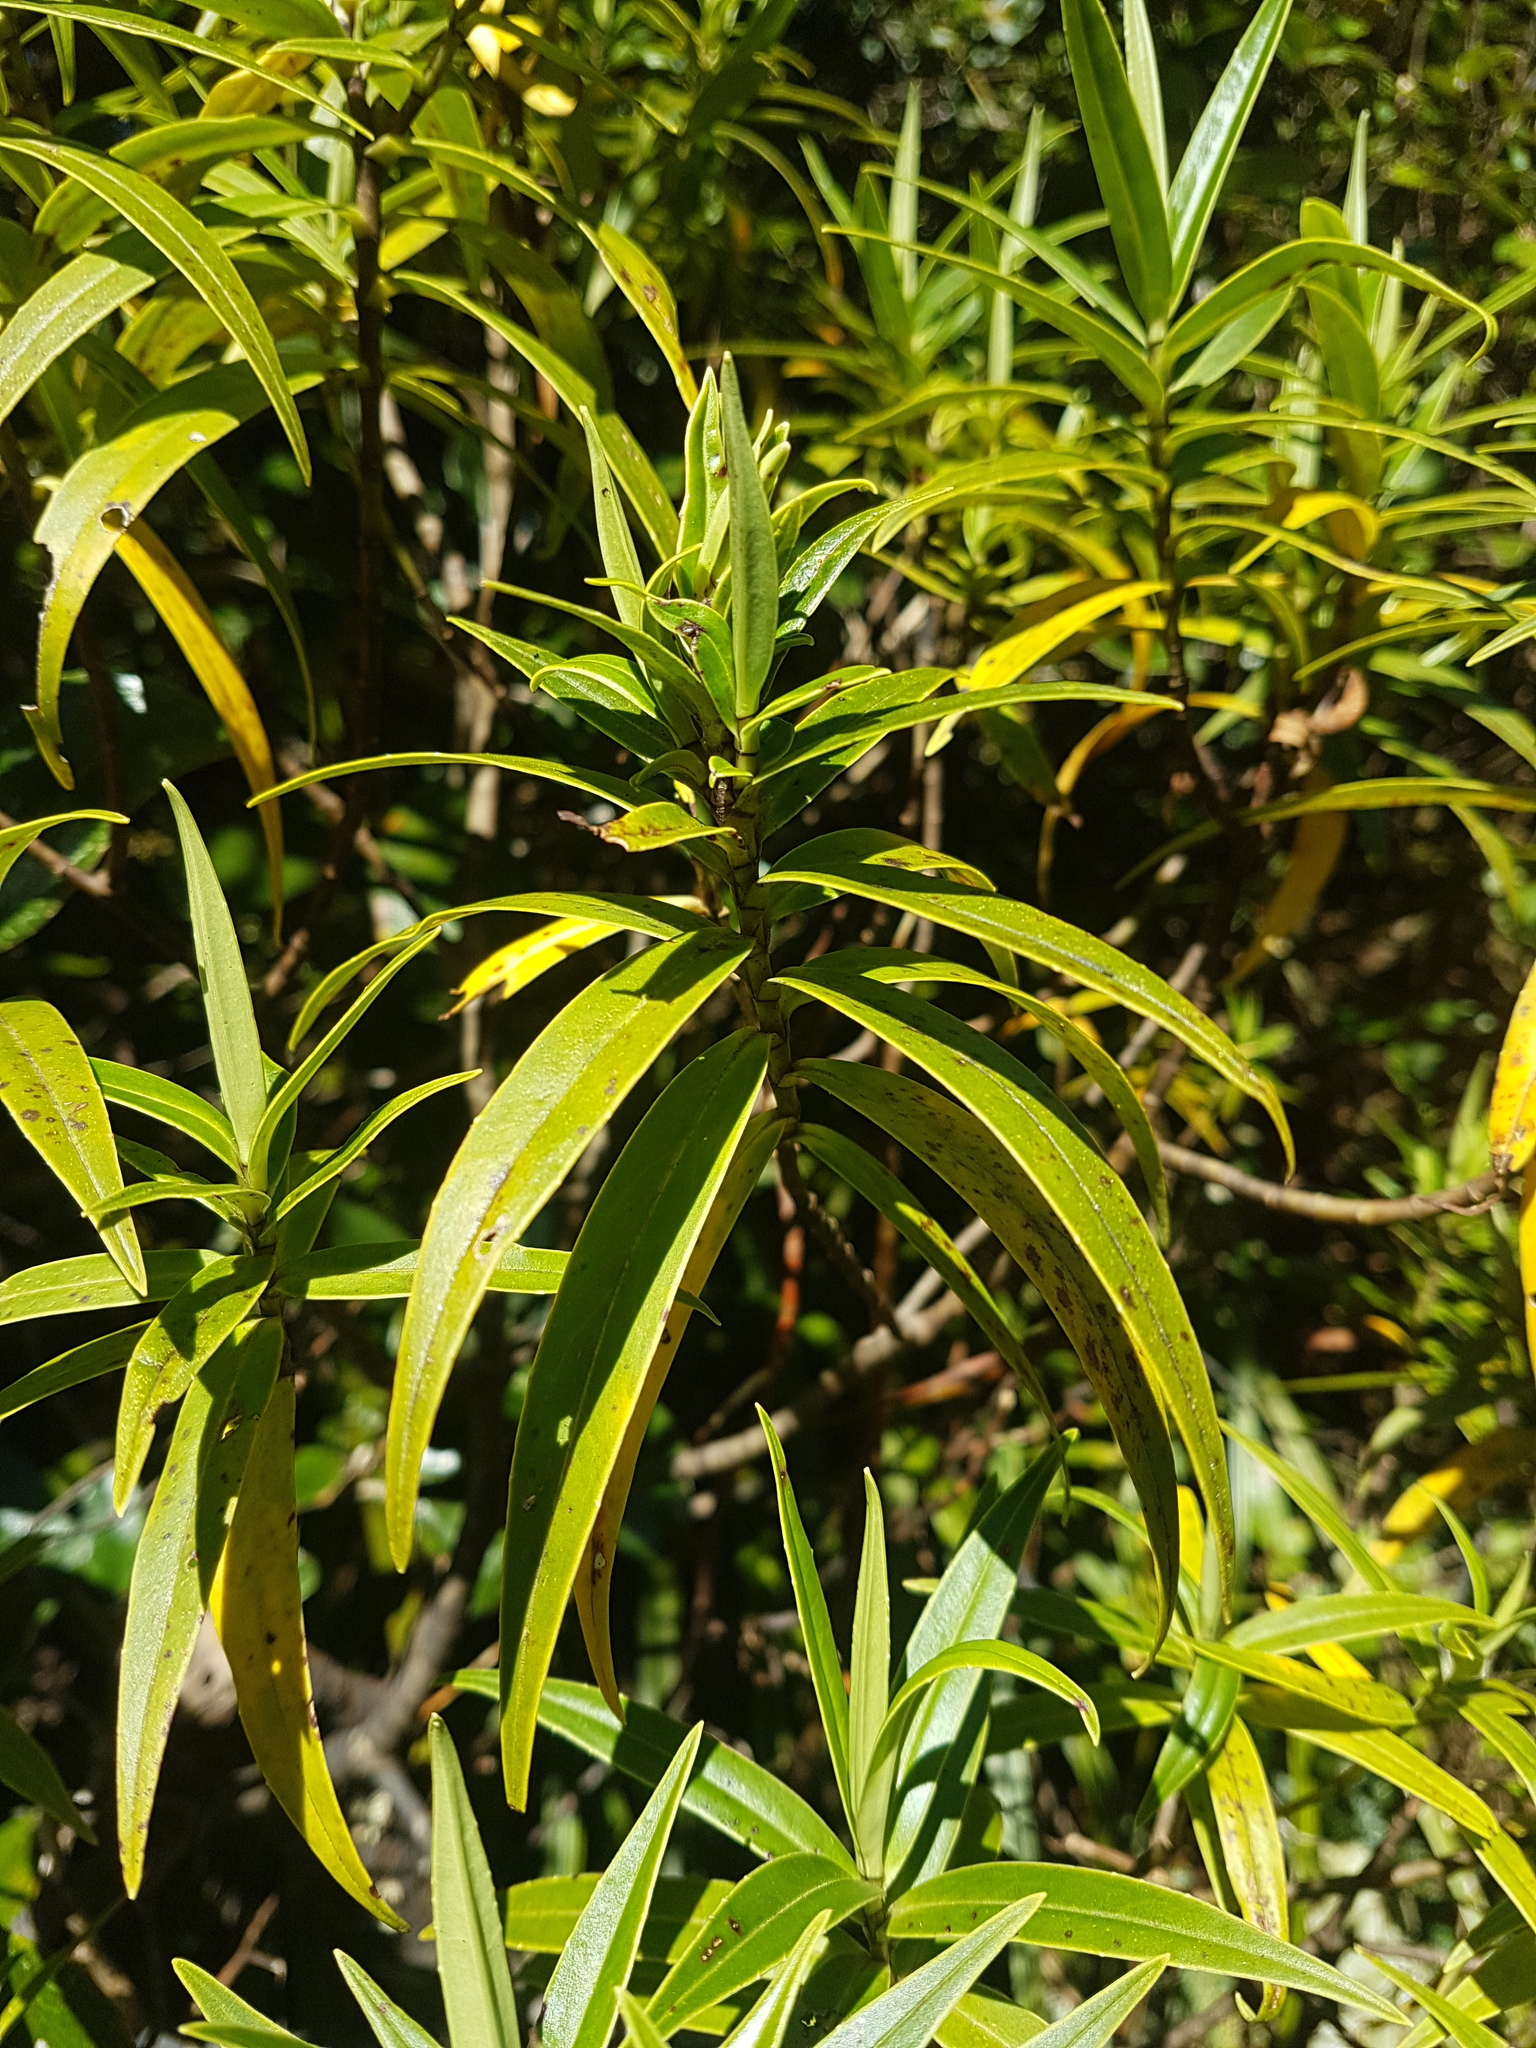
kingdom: Plantae
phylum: Tracheophyta
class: Magnoliopsida
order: Lamiales
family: Plantaginaceae
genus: Veronica
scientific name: Veronica stricta
